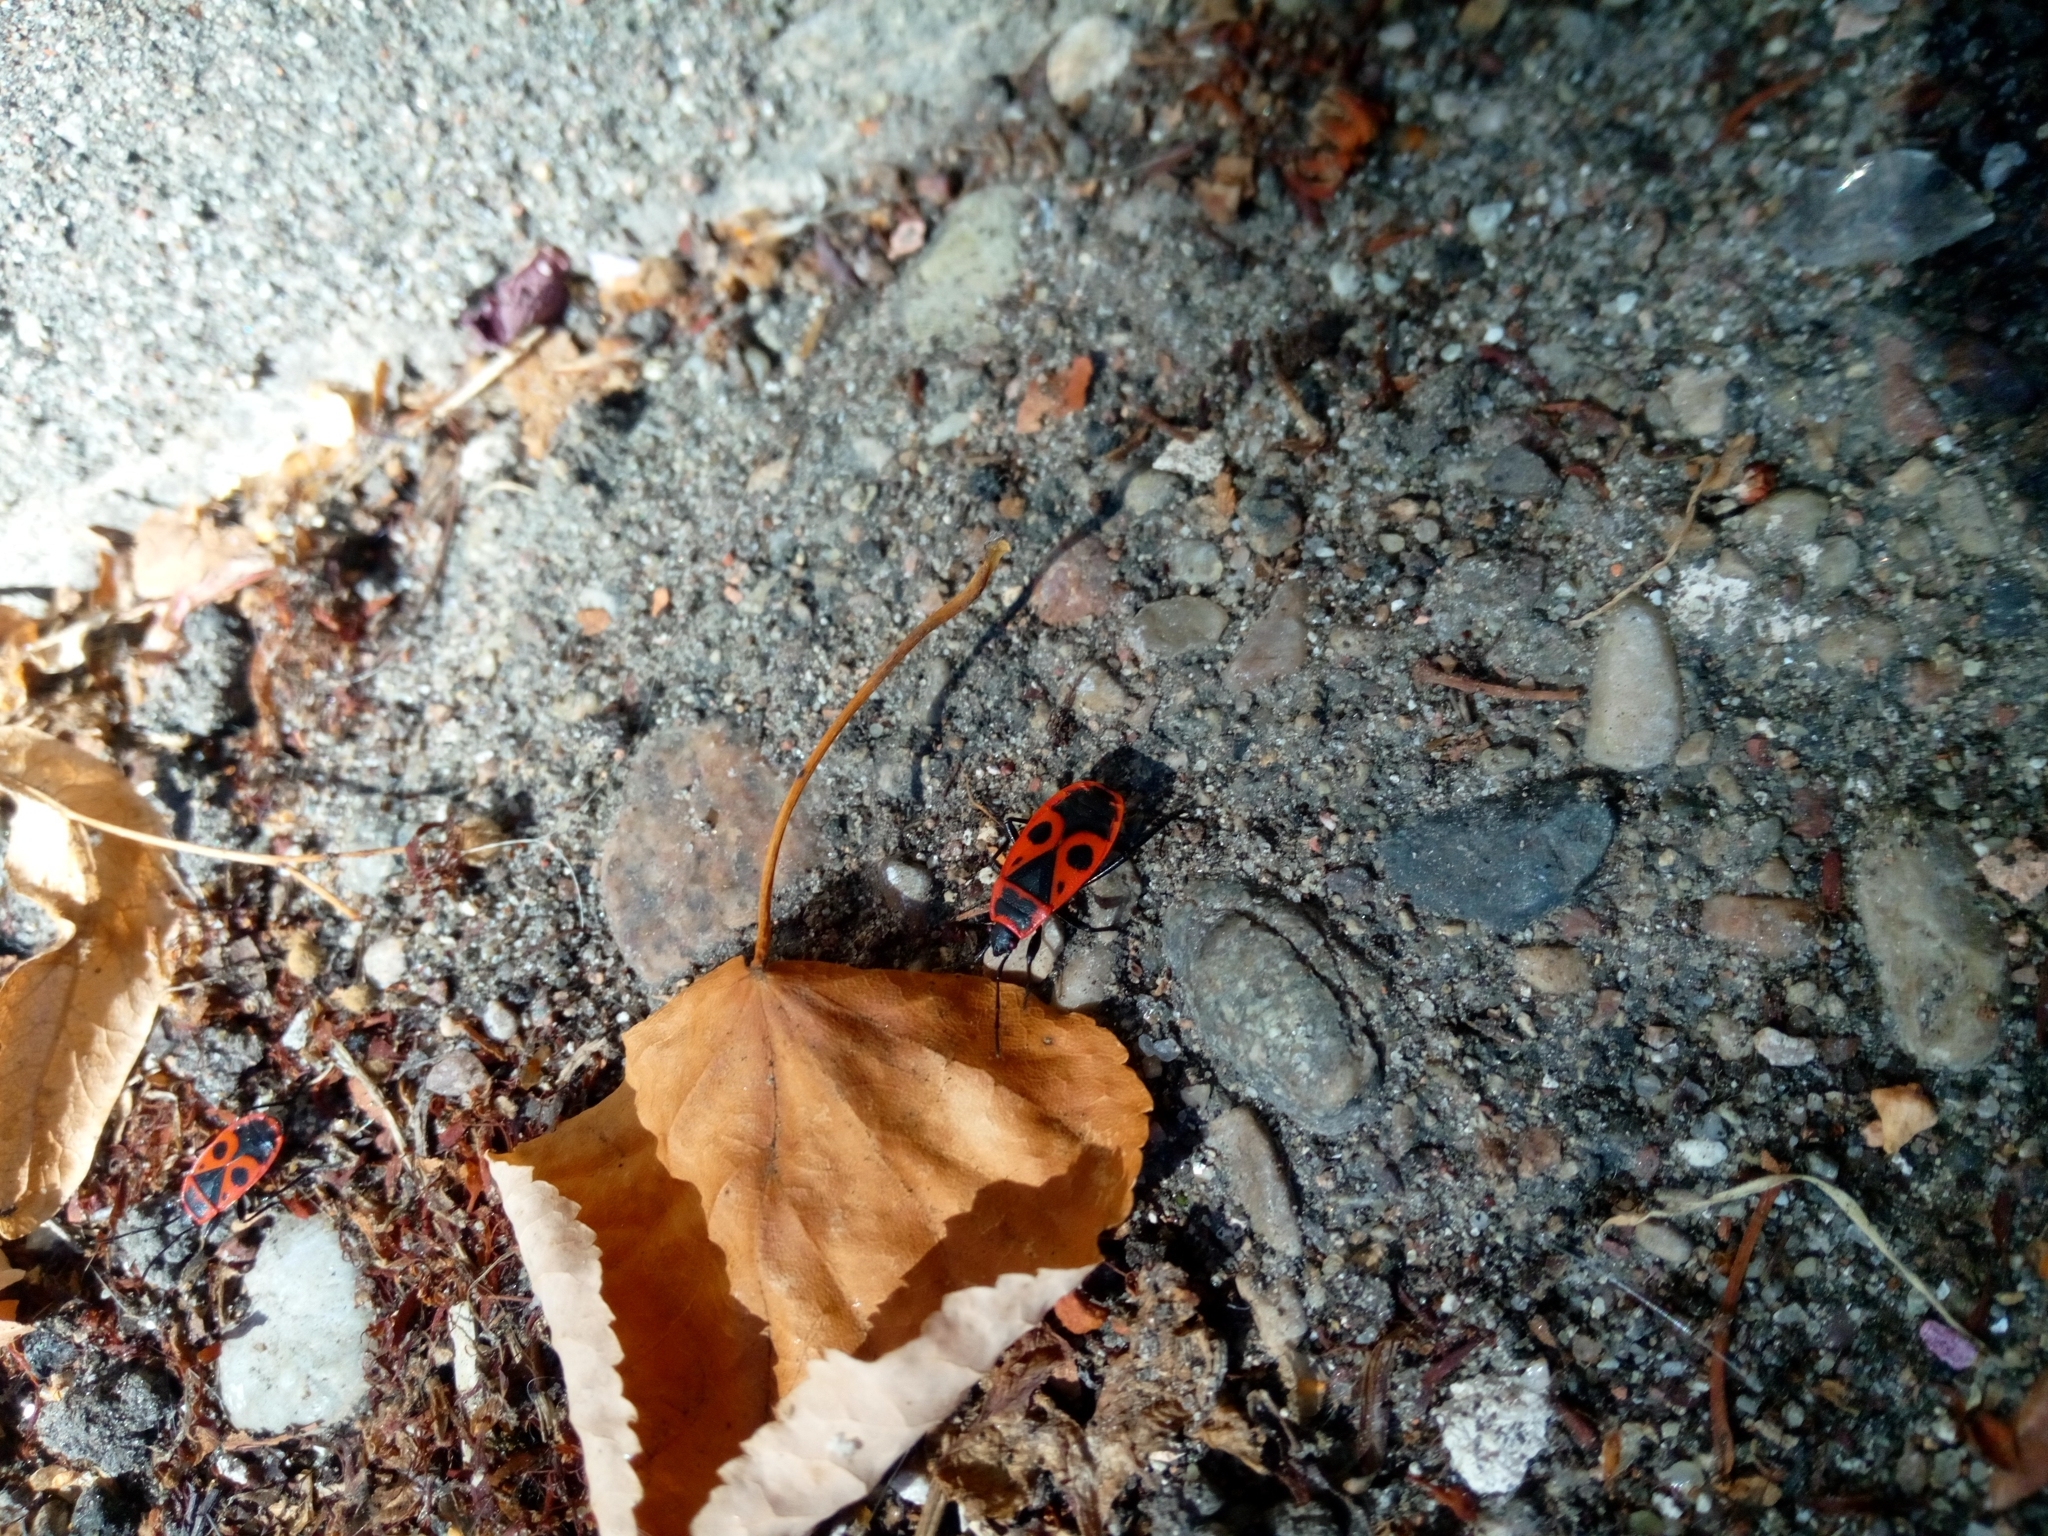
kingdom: Animalia
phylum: Arthropoda
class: Insecta
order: Hemiptera
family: Pyrrhocoridae
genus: Pyrrhocoris
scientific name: Pyrrhocoris apterus
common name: Firebug
